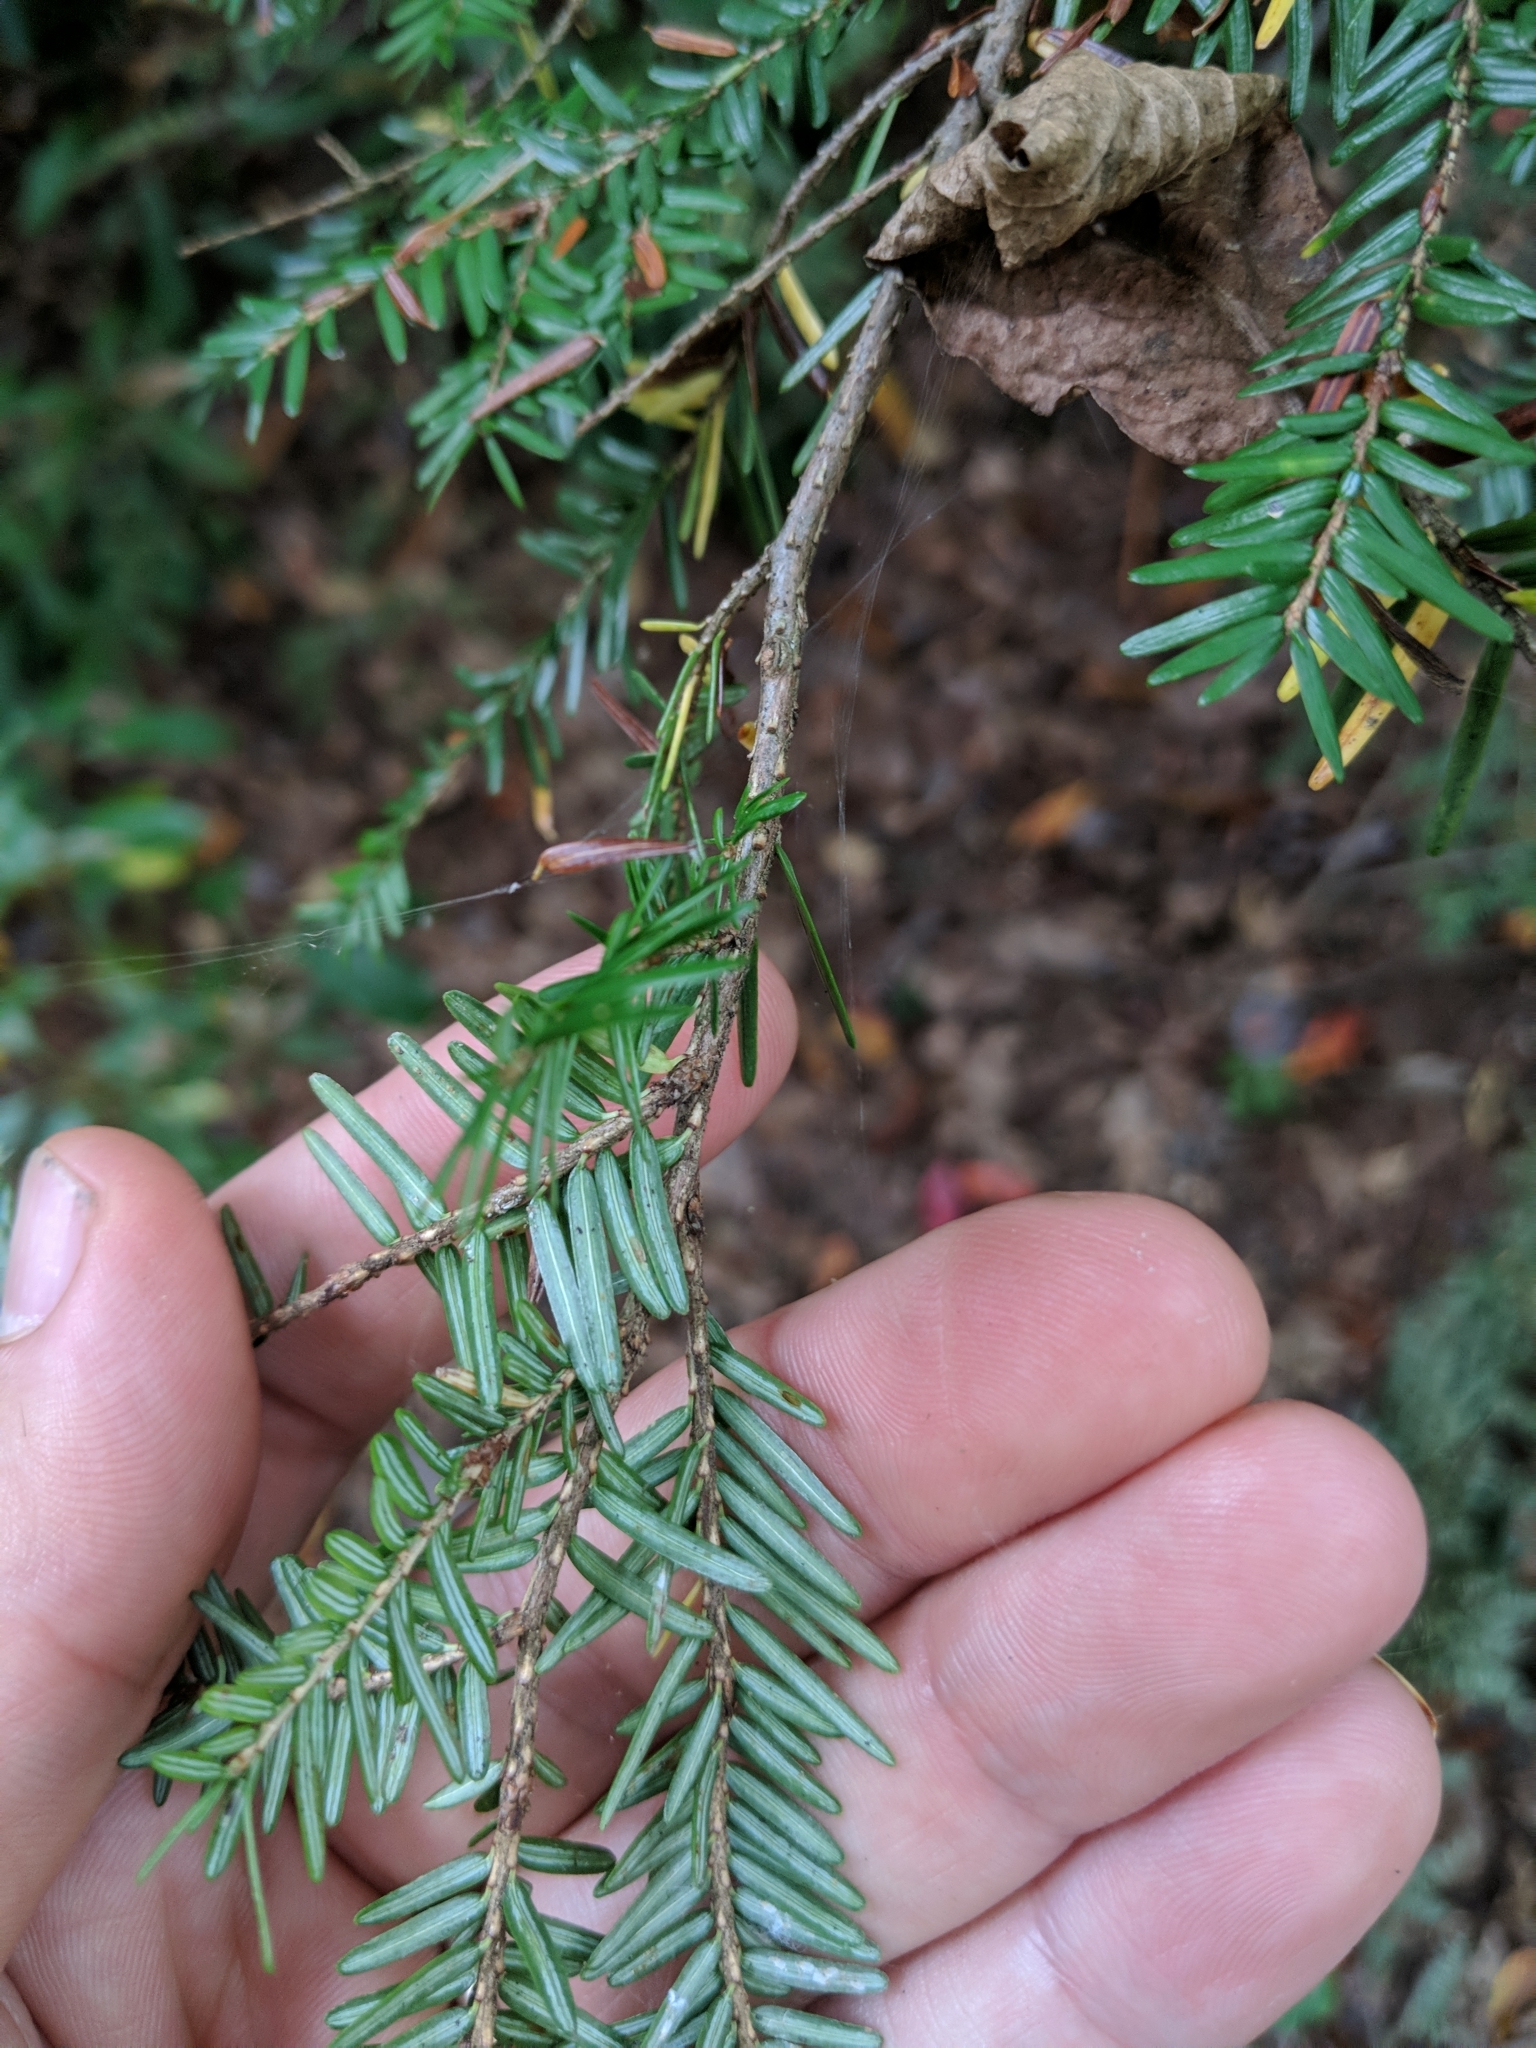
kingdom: Plantae
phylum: Tracheophyta
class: Pinopsida
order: Pinales
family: Pinaceae
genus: Tsuga
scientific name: Tsuga canadensis
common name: Eastern hemlock
